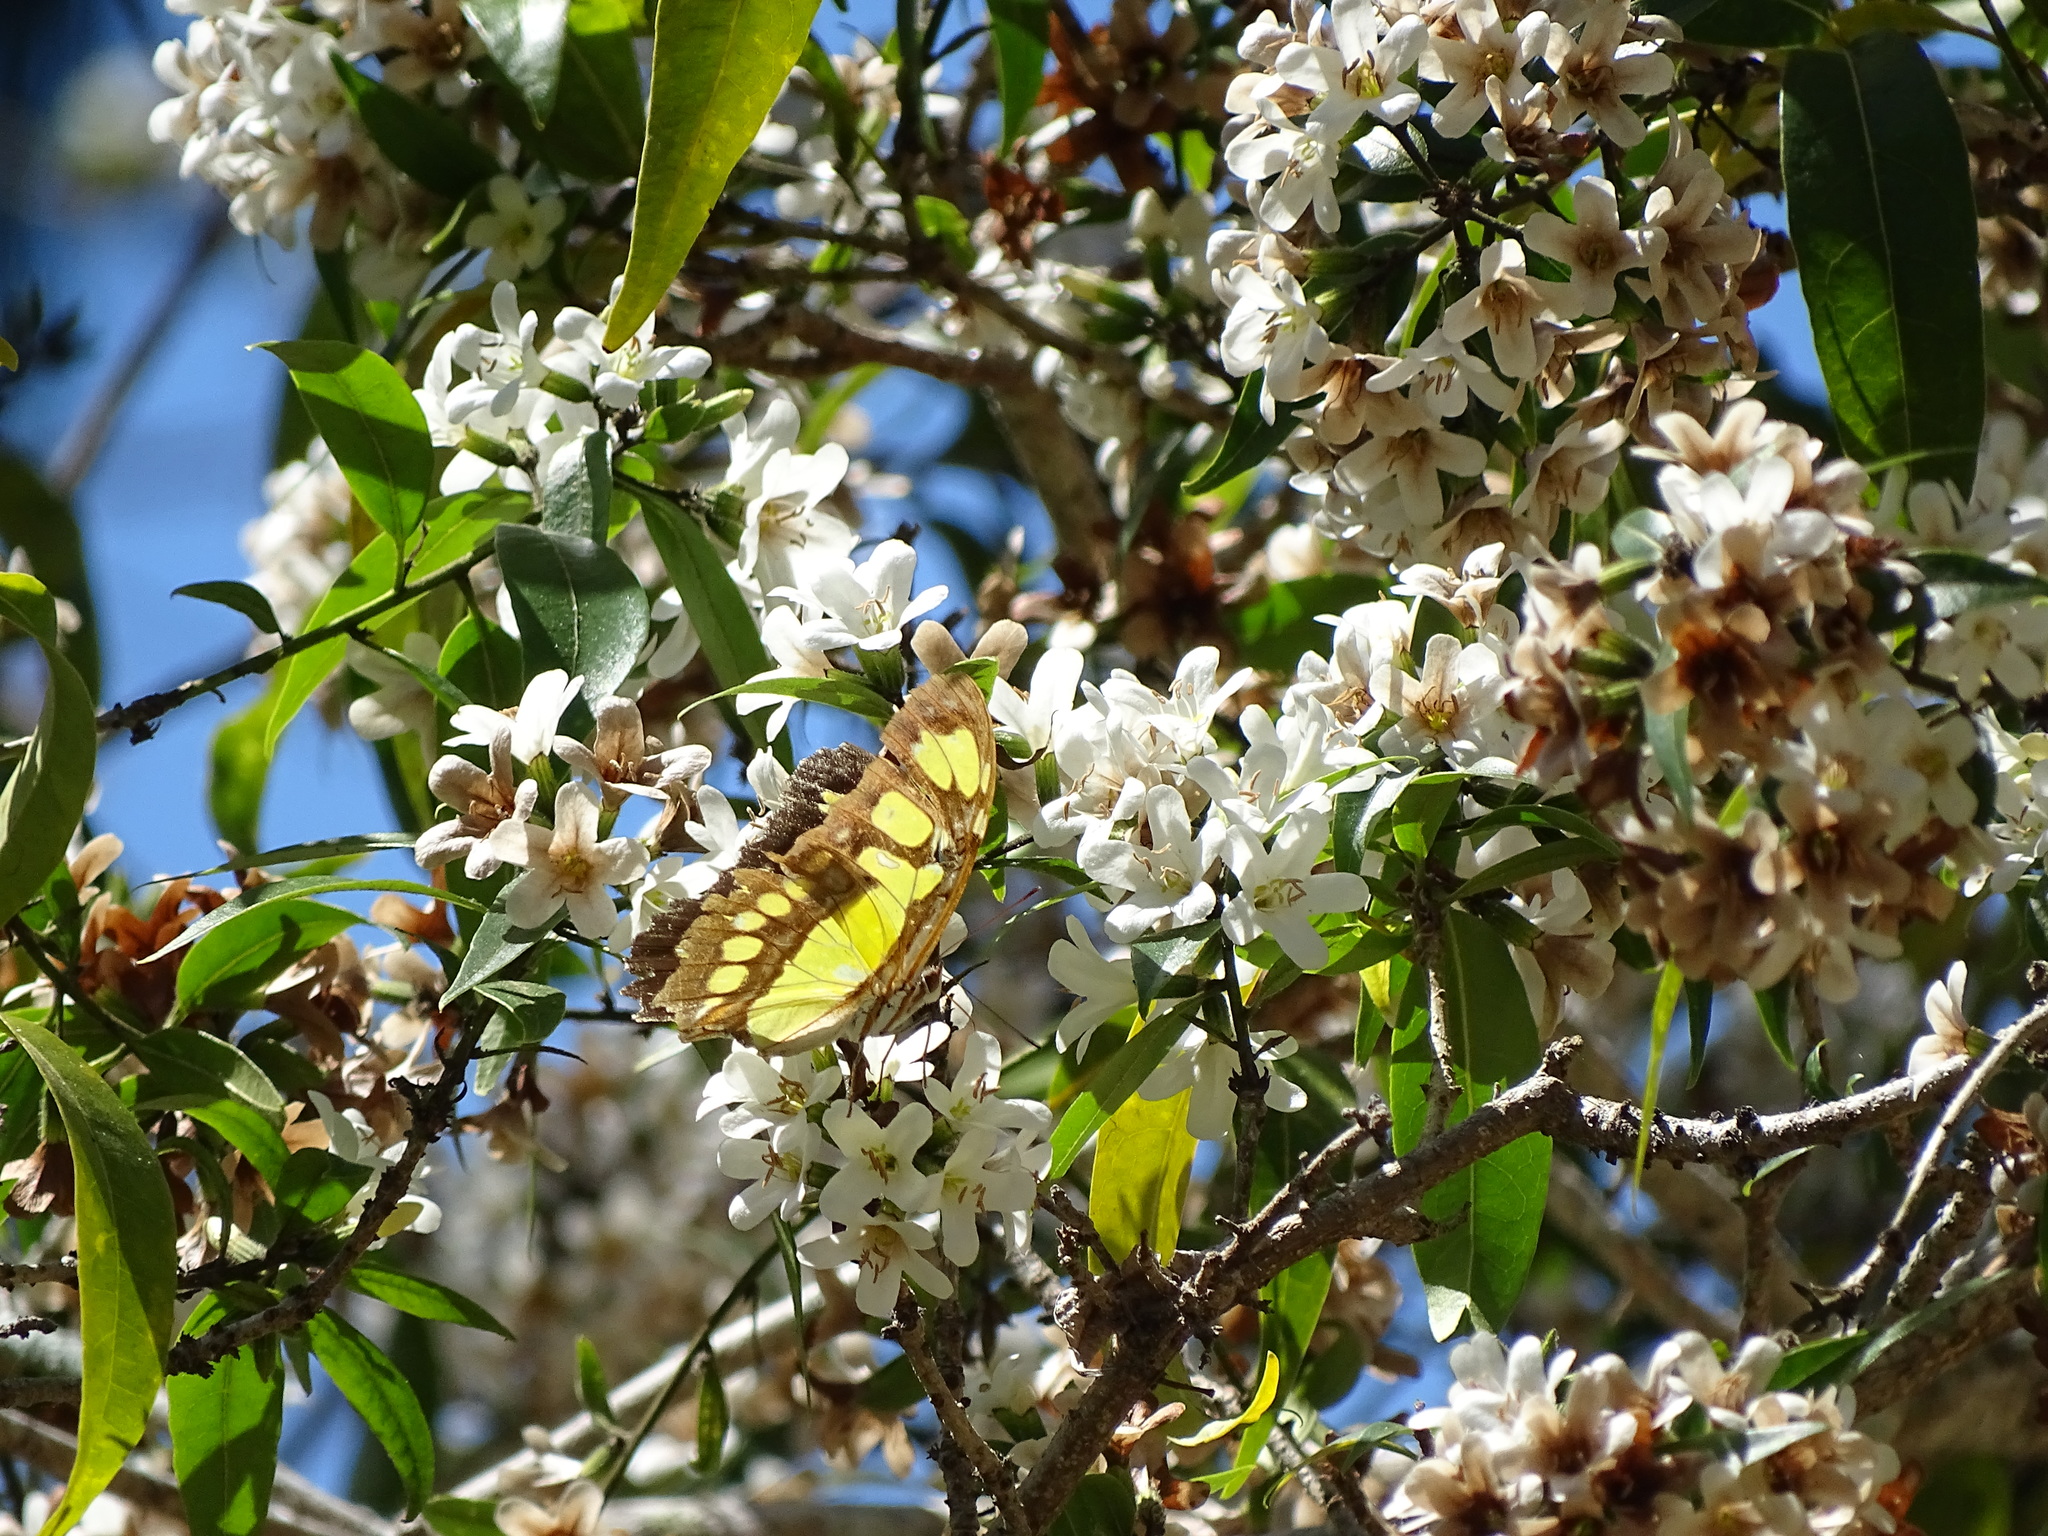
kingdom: Animalia
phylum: Arthropoda
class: Insecta
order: Lepidoptera
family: Nymphalidae
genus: Siproeta
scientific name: Siproeta stelenes
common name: Malachite
